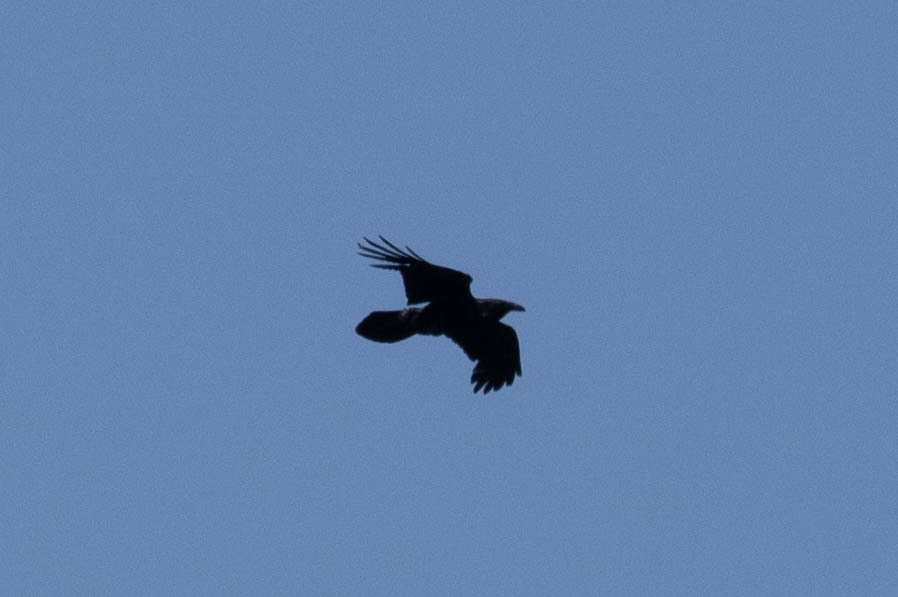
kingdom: Animalia
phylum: Chordata
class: Aves
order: Passeriformes
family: Corvidae
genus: Corvus
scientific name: Corvus corax
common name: Common raven
